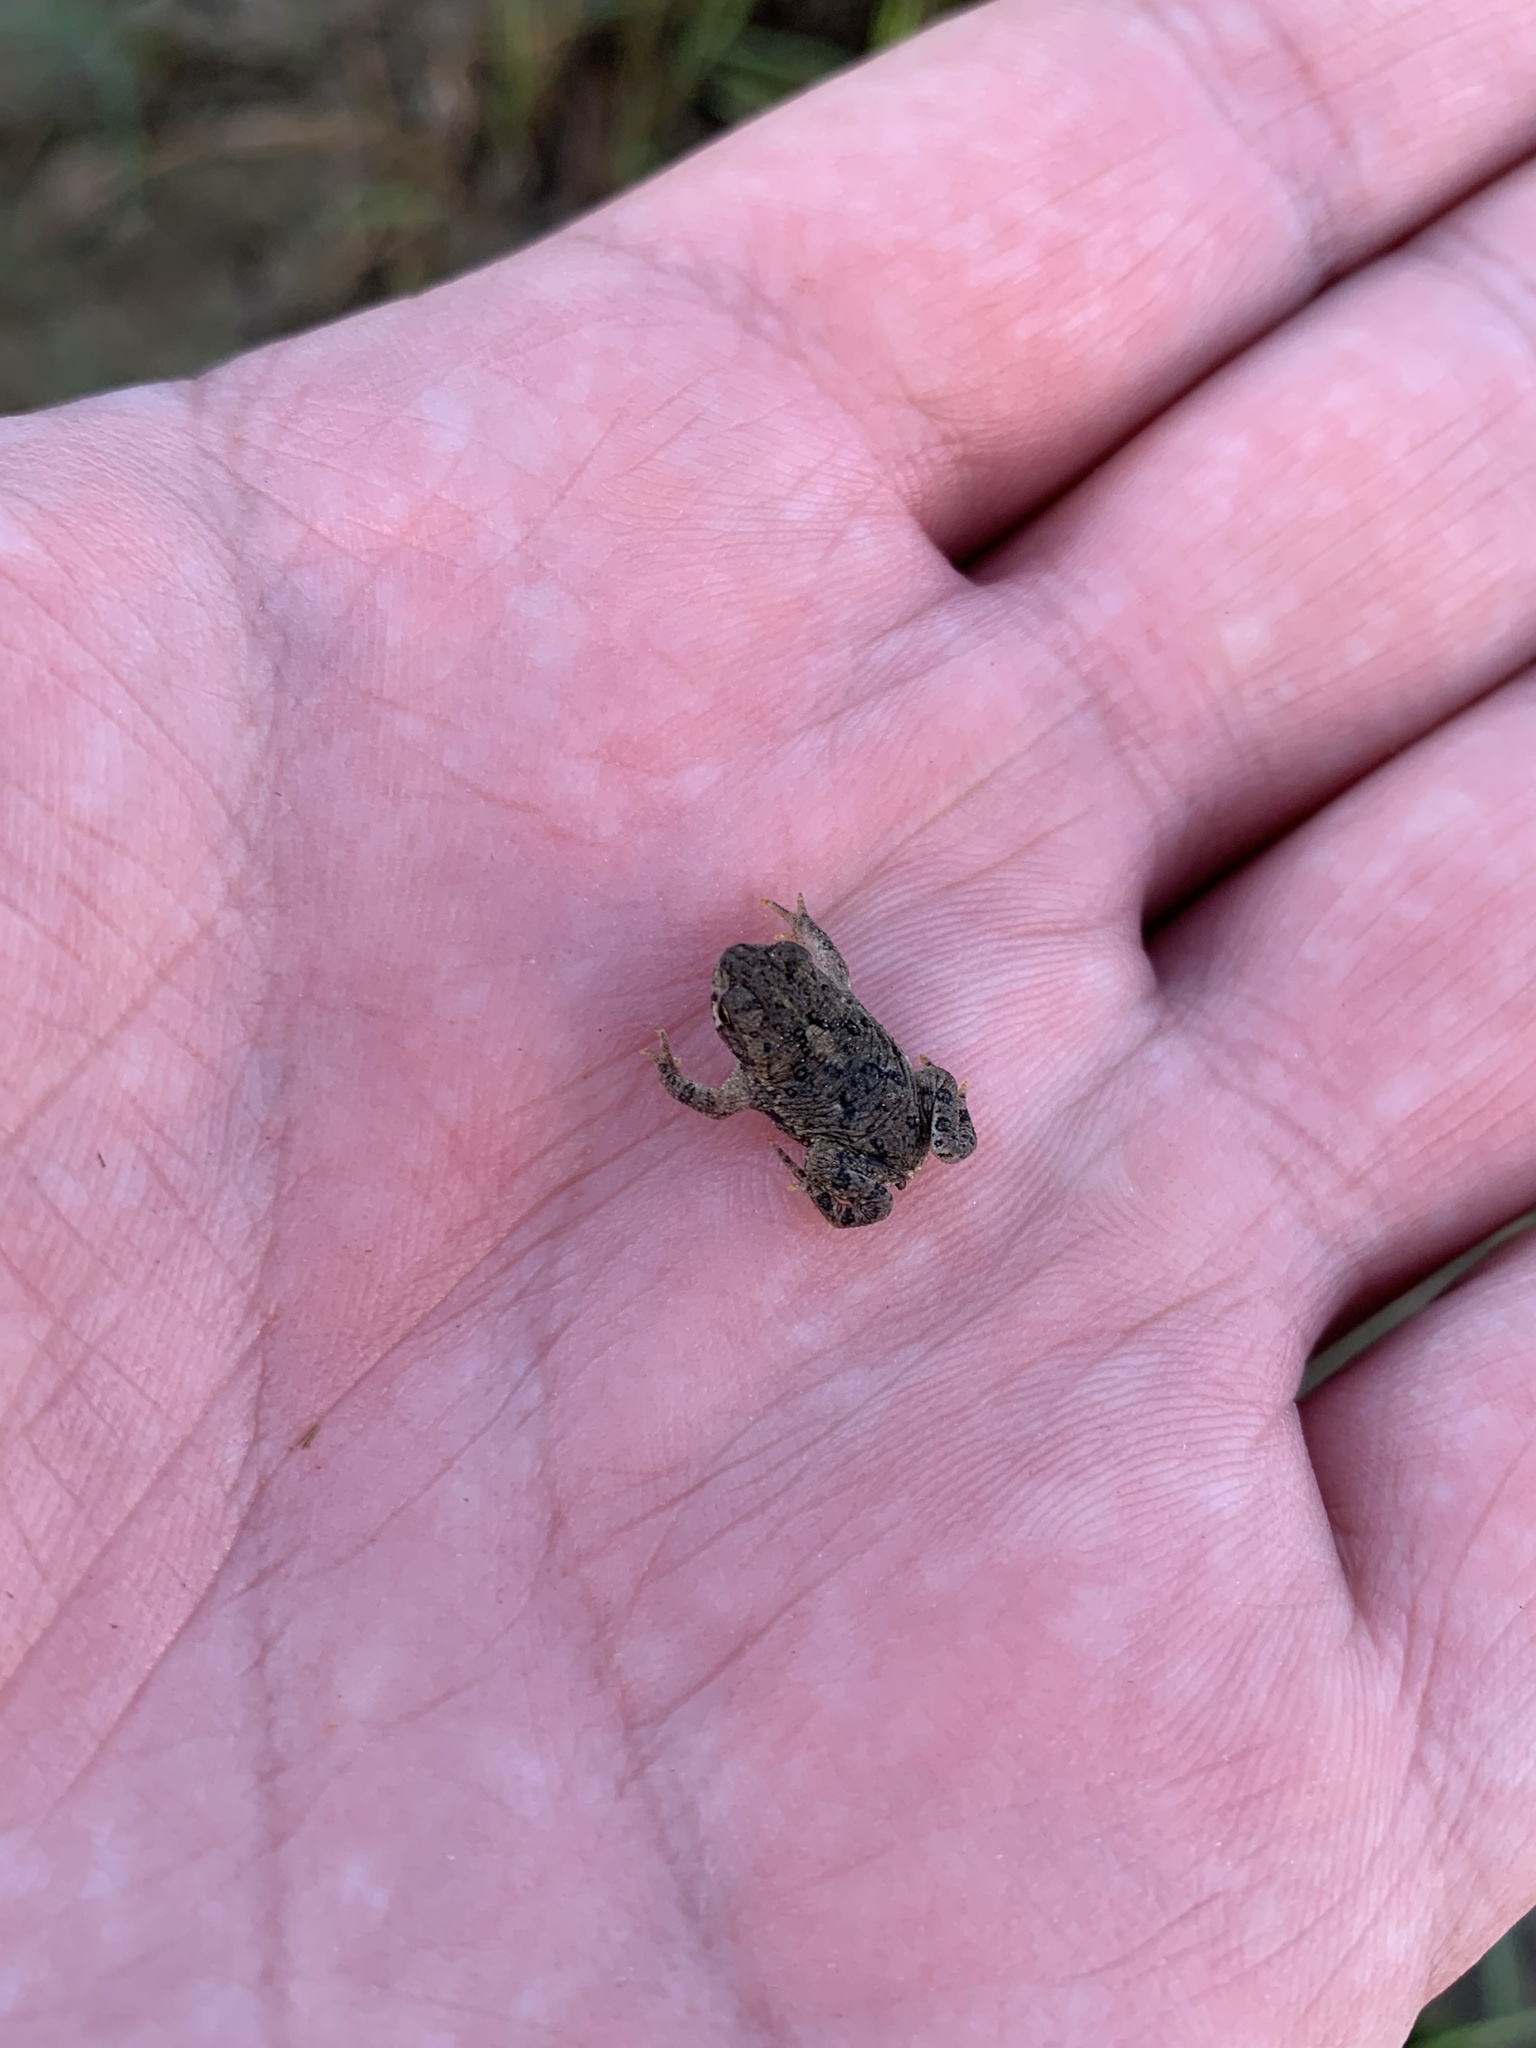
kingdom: Animalia
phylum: Chordata
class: Amphibia
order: Anura
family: Bufonidae
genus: Rhinella
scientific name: Rhinella arenarum
